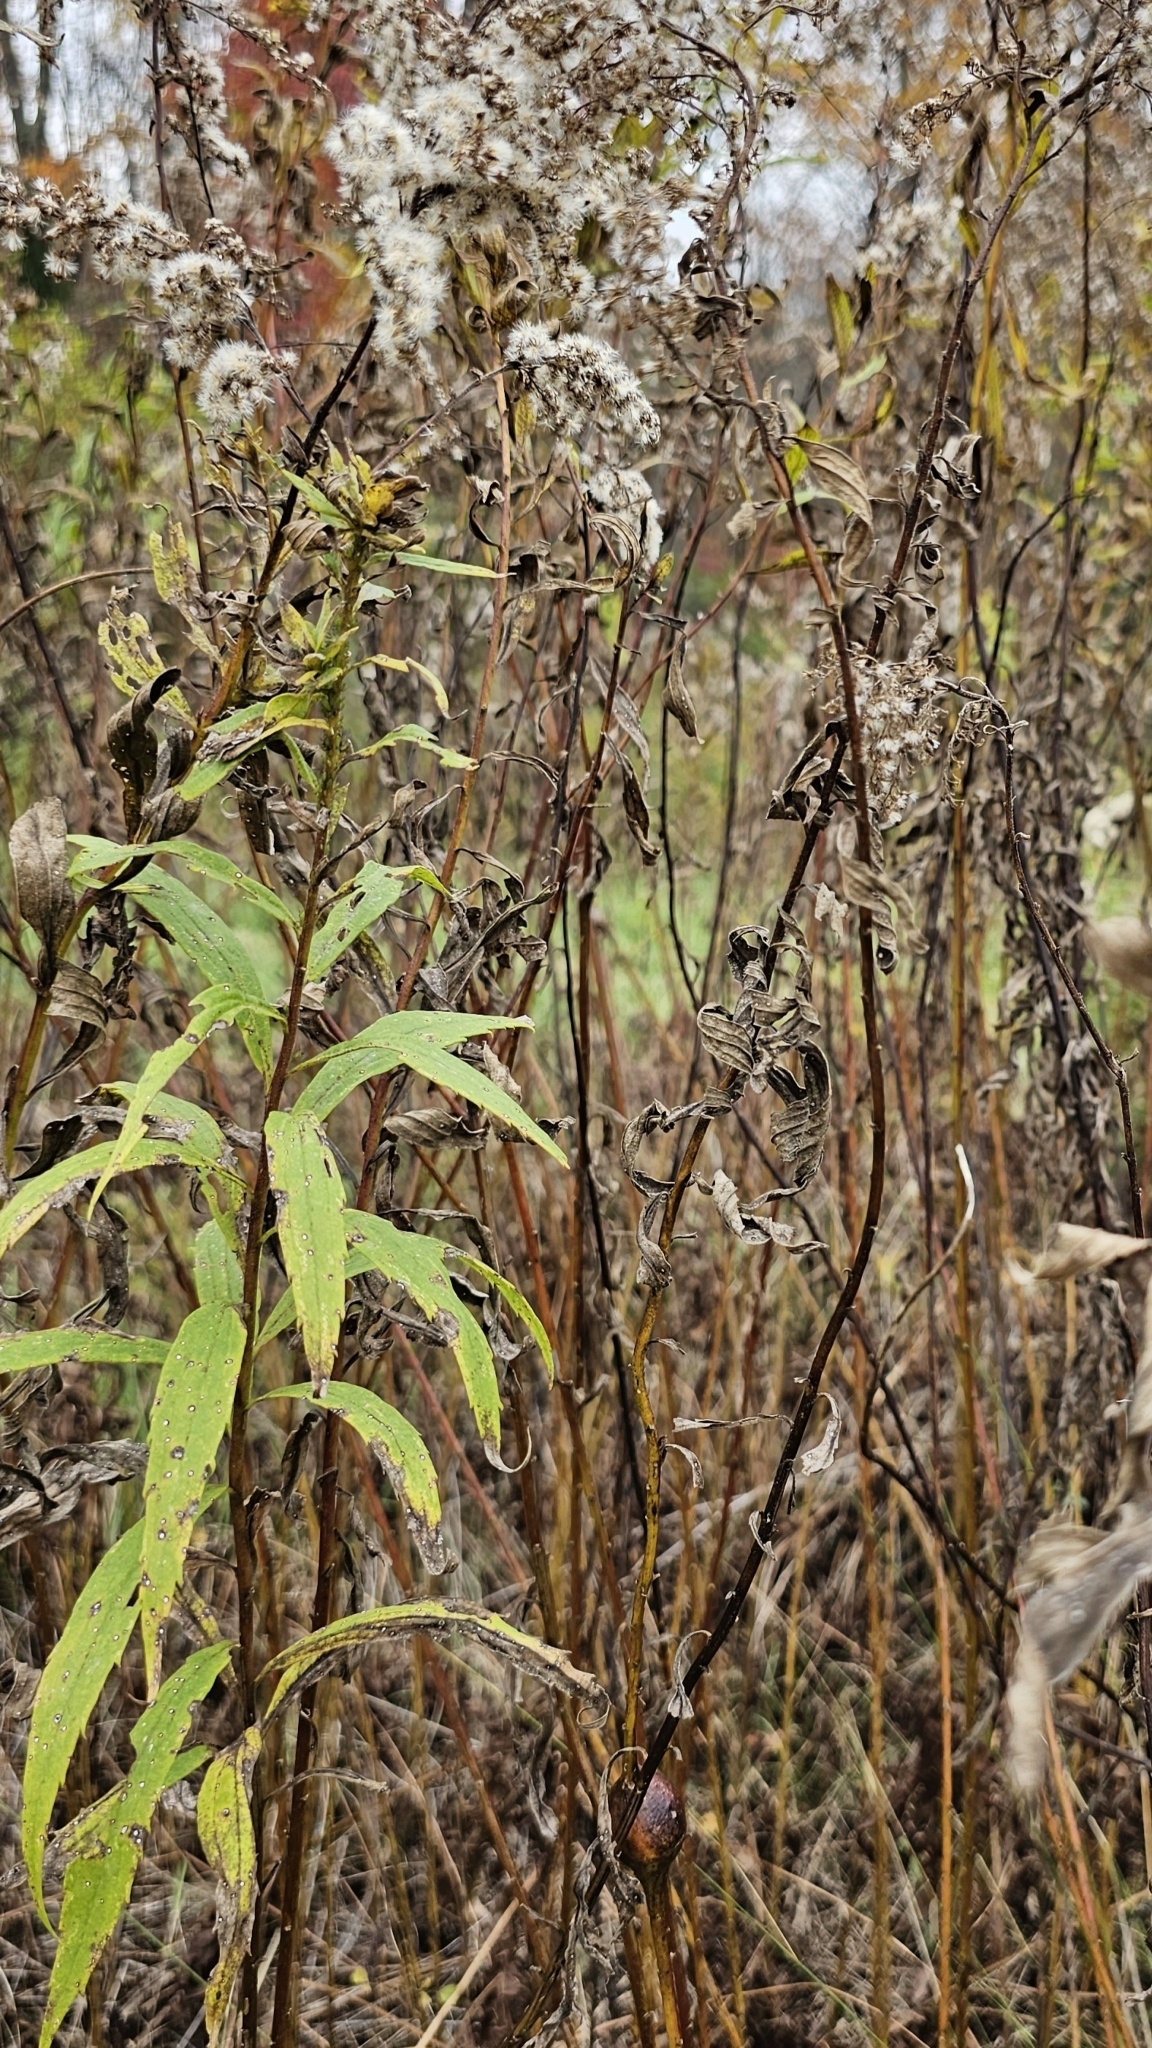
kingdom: Animalia
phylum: Arthropoda
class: Insecta
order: Diptera
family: Tephritidae
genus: Eurosta
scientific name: Eurosta solidaginis
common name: Goldenrod gall fly
